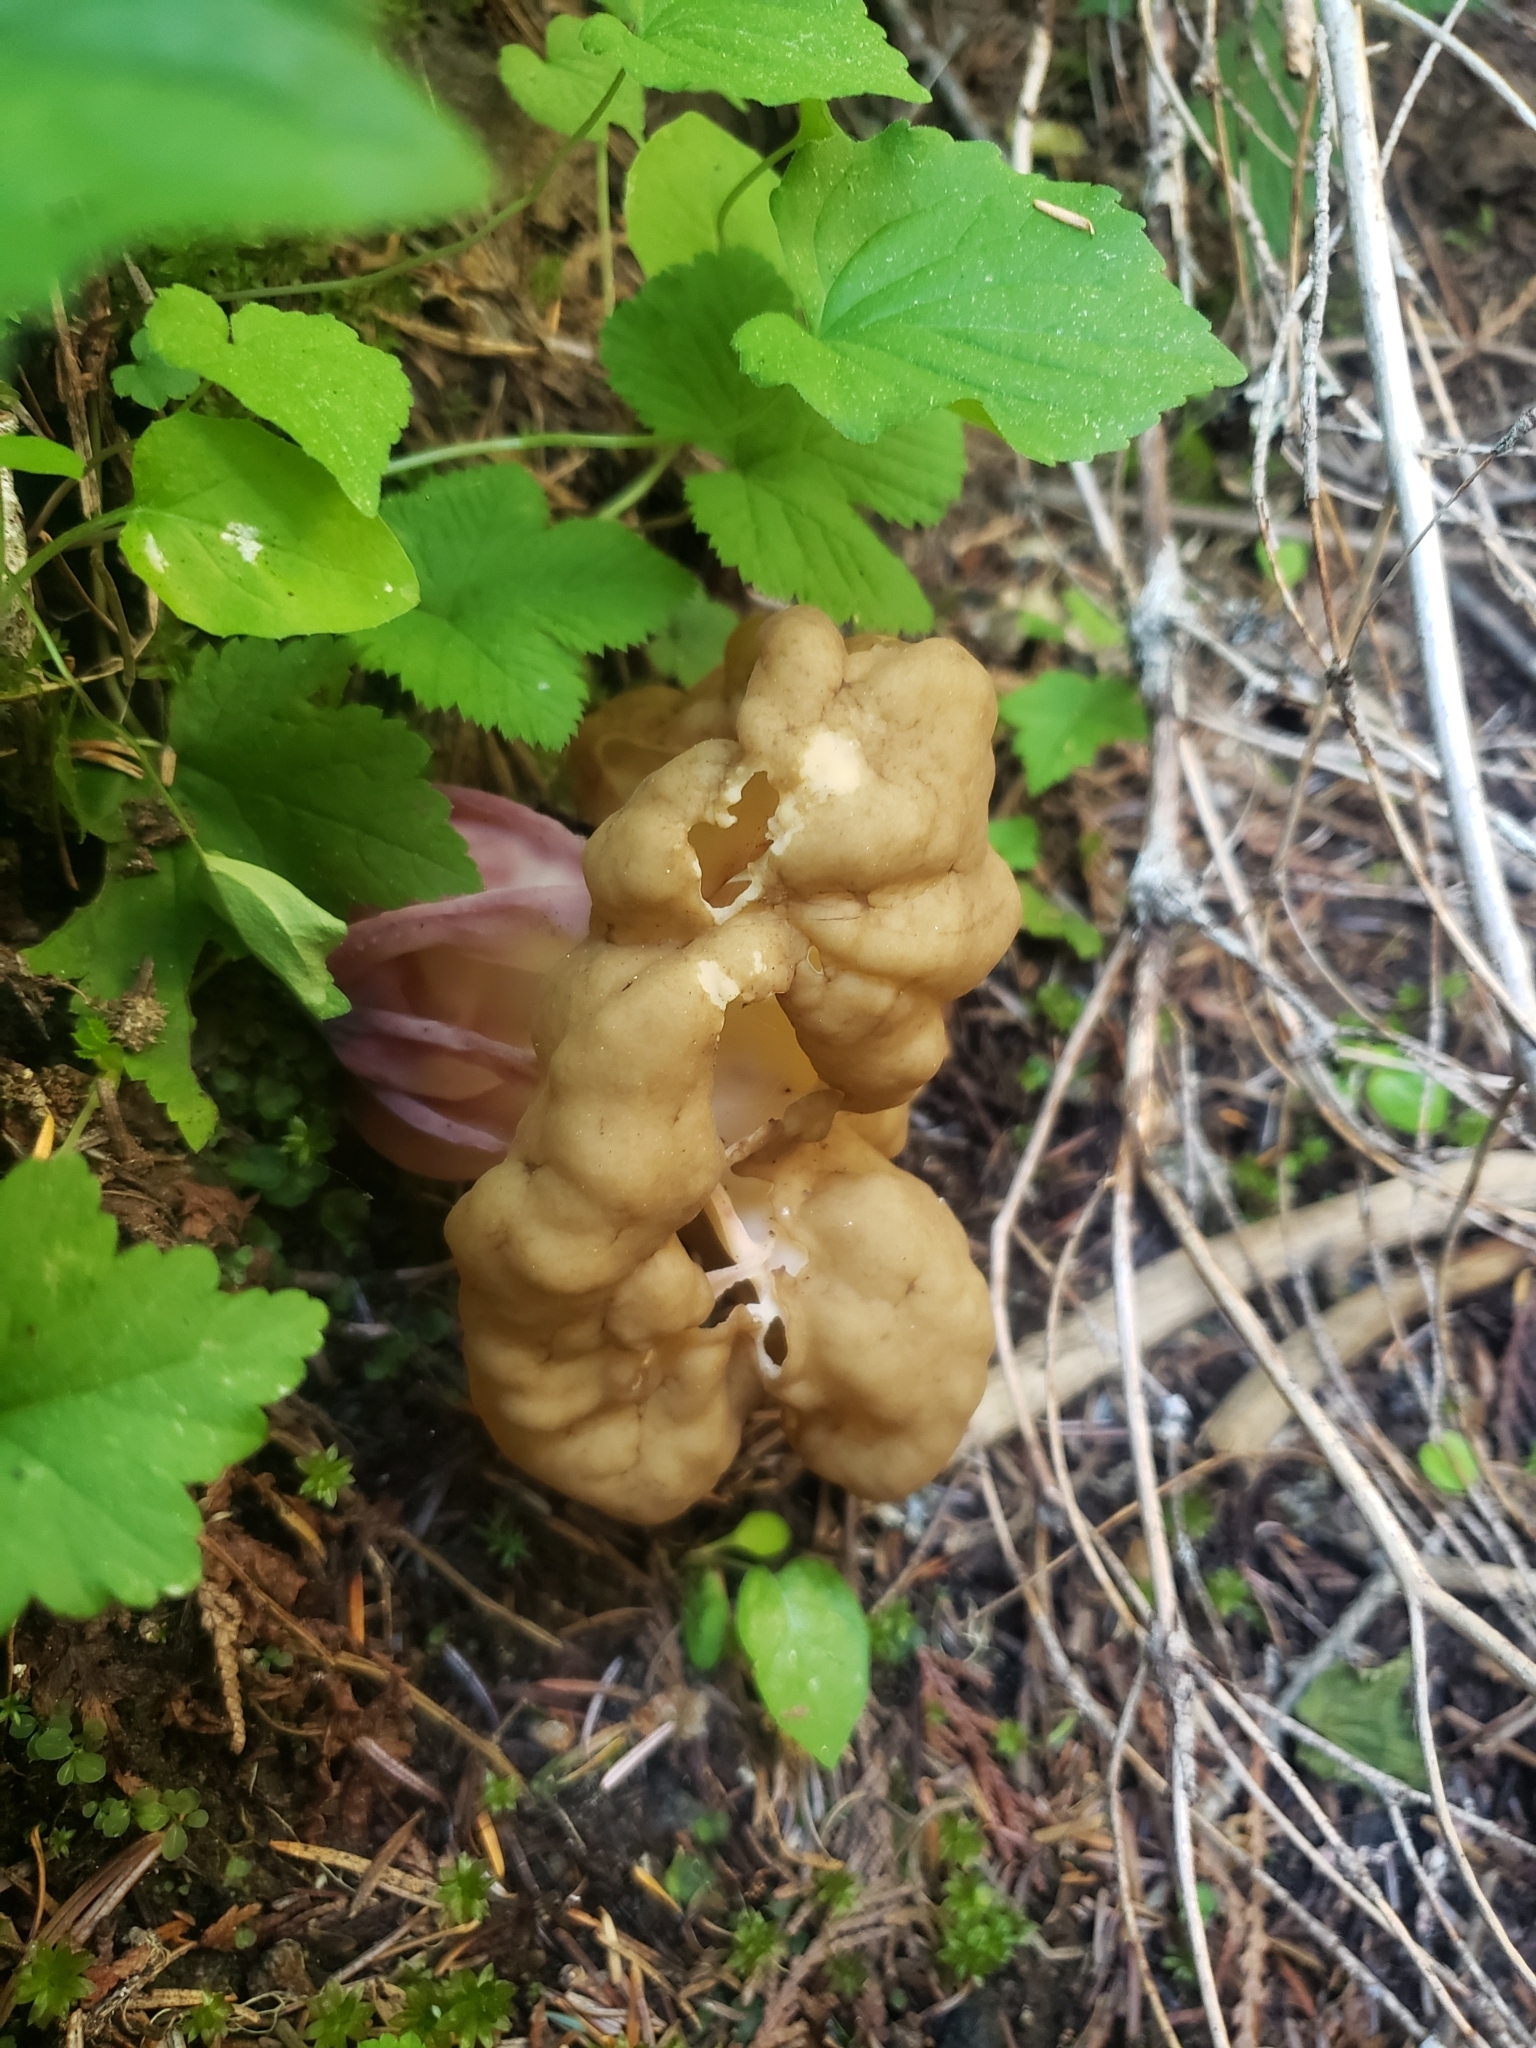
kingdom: Fungi
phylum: Ascomycota
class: Pezizomycetes
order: Pezizales
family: Discinaceae
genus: Gyromitra
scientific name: Gyromitra californica
